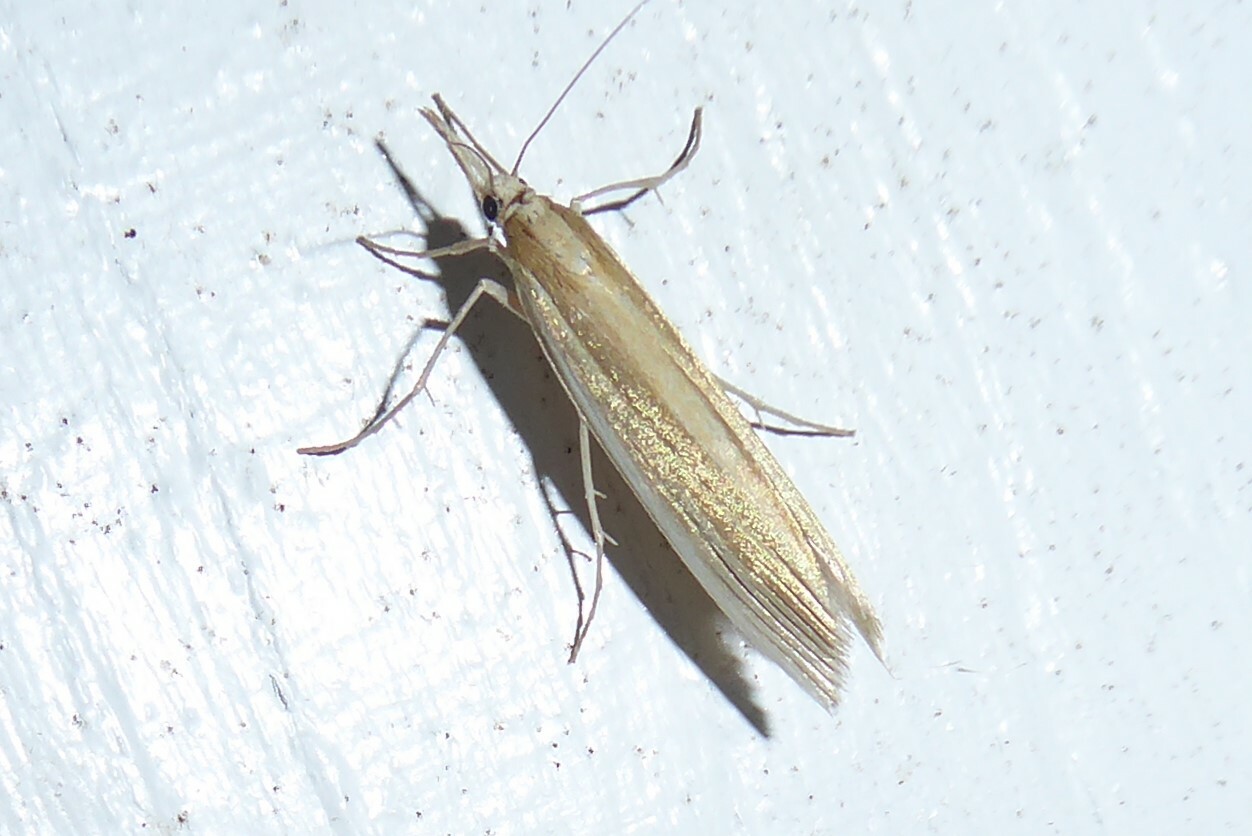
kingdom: Animalia
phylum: Arthropoda
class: Insecta
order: Lepidoptera
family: Crambidae
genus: Orocrambus
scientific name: Orocrambus angustipennis
